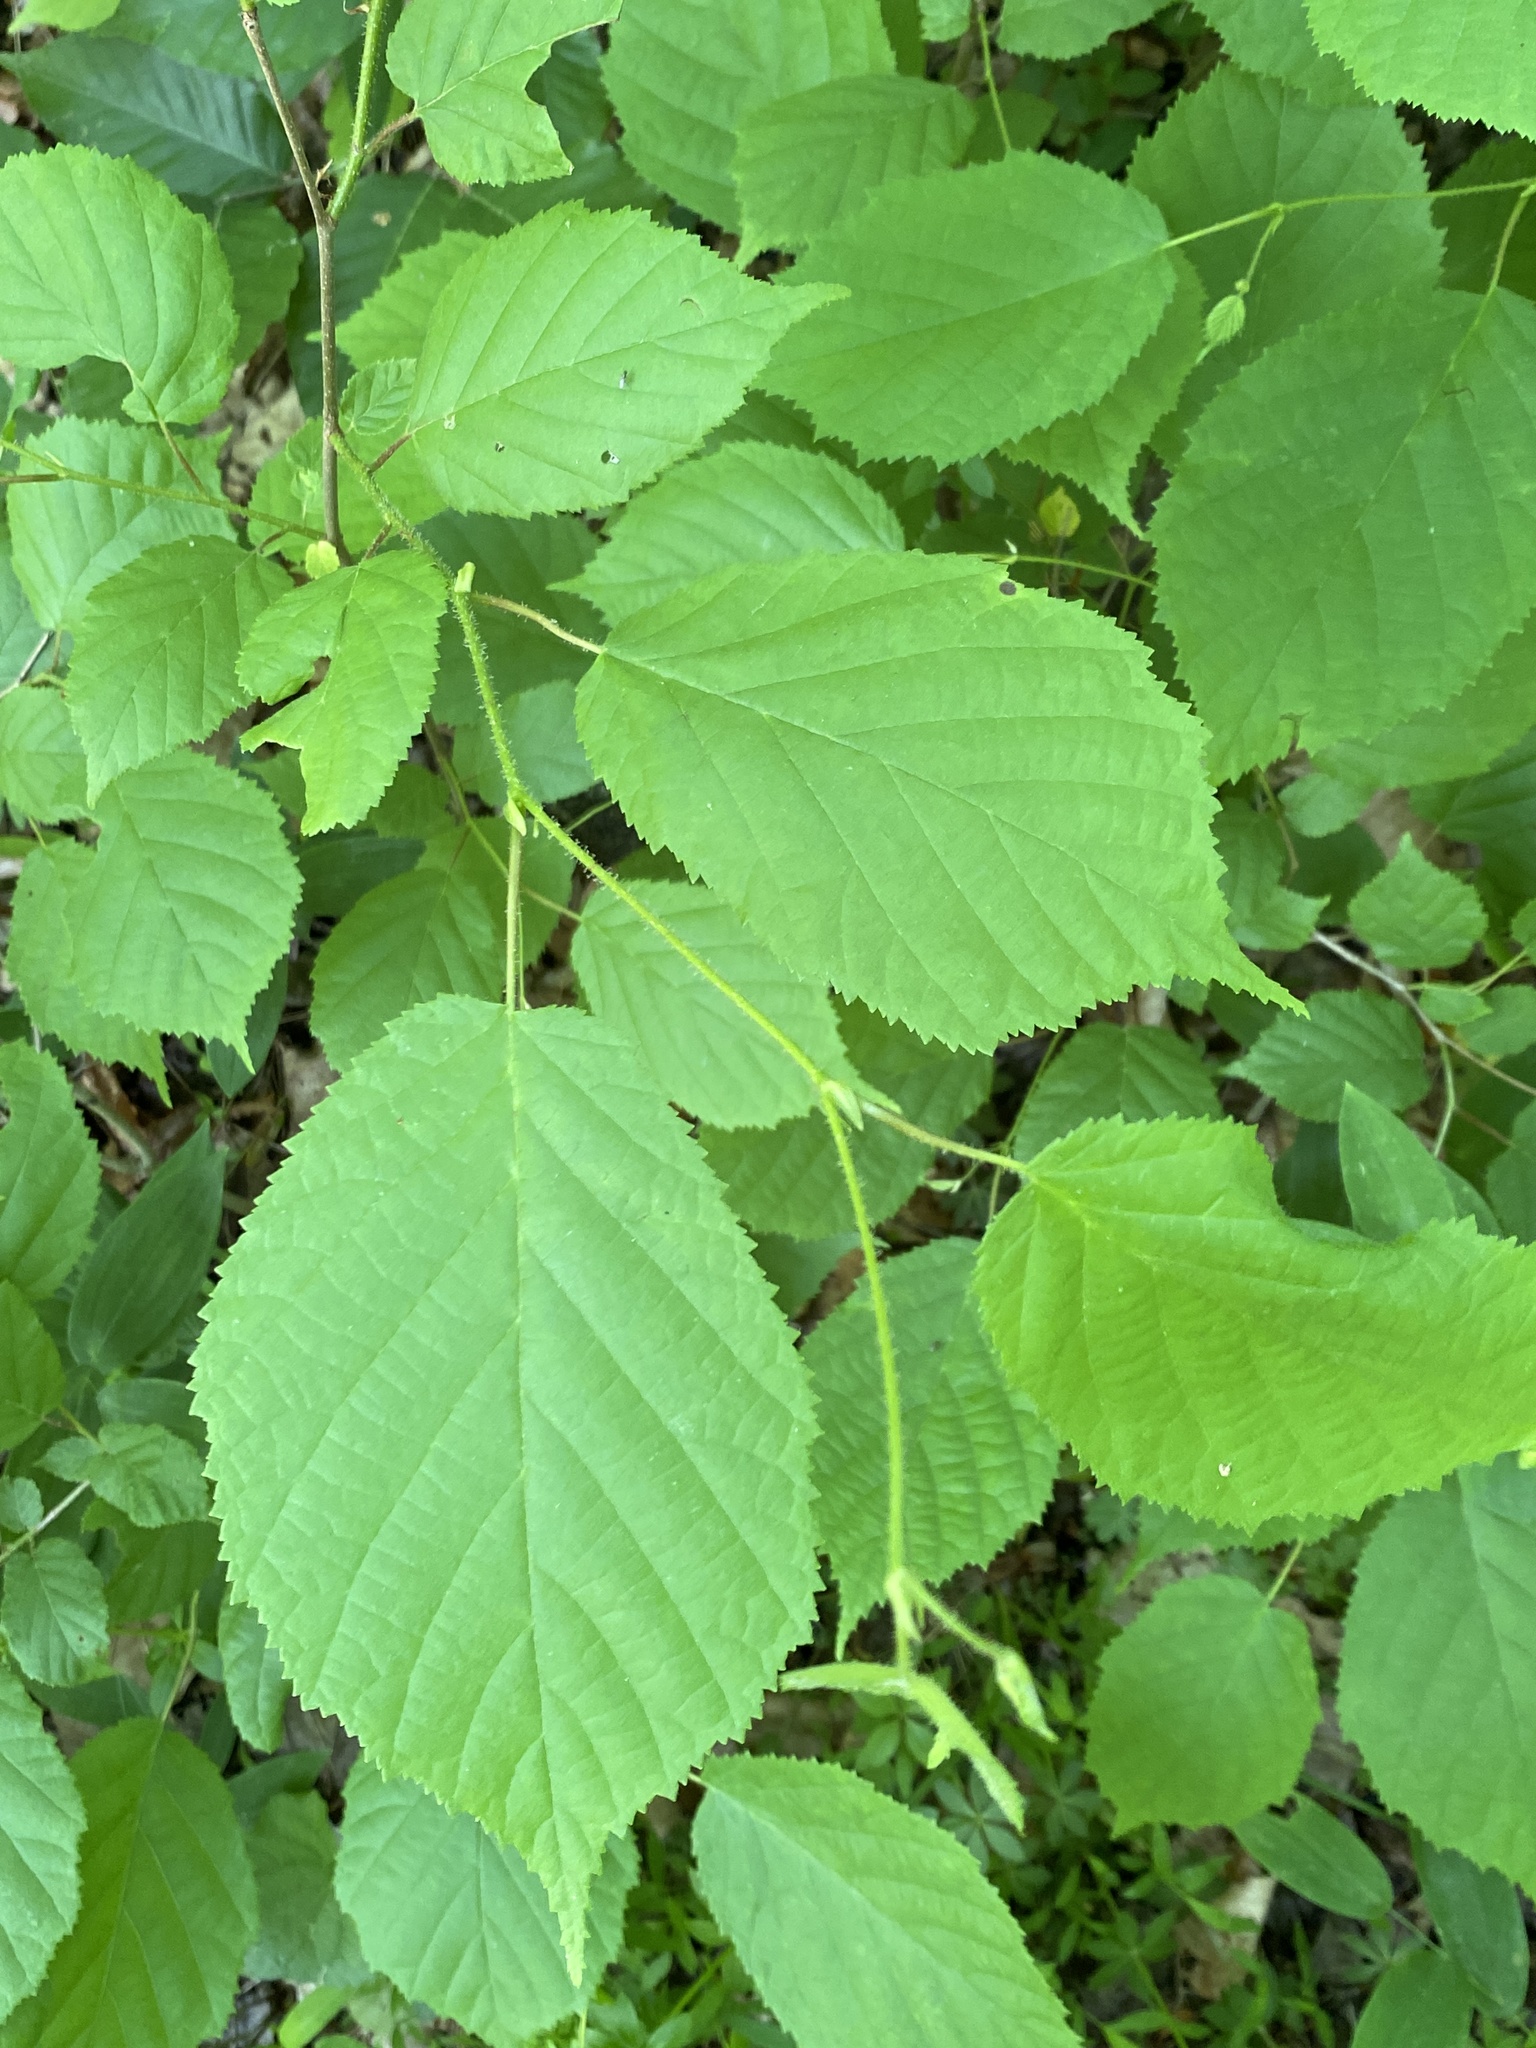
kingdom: Plantae
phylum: Tracheophyta
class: Magnoliopsida
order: Fagales
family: Betulaceae
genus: Corylus
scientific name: Corylus americana
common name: American hazel
